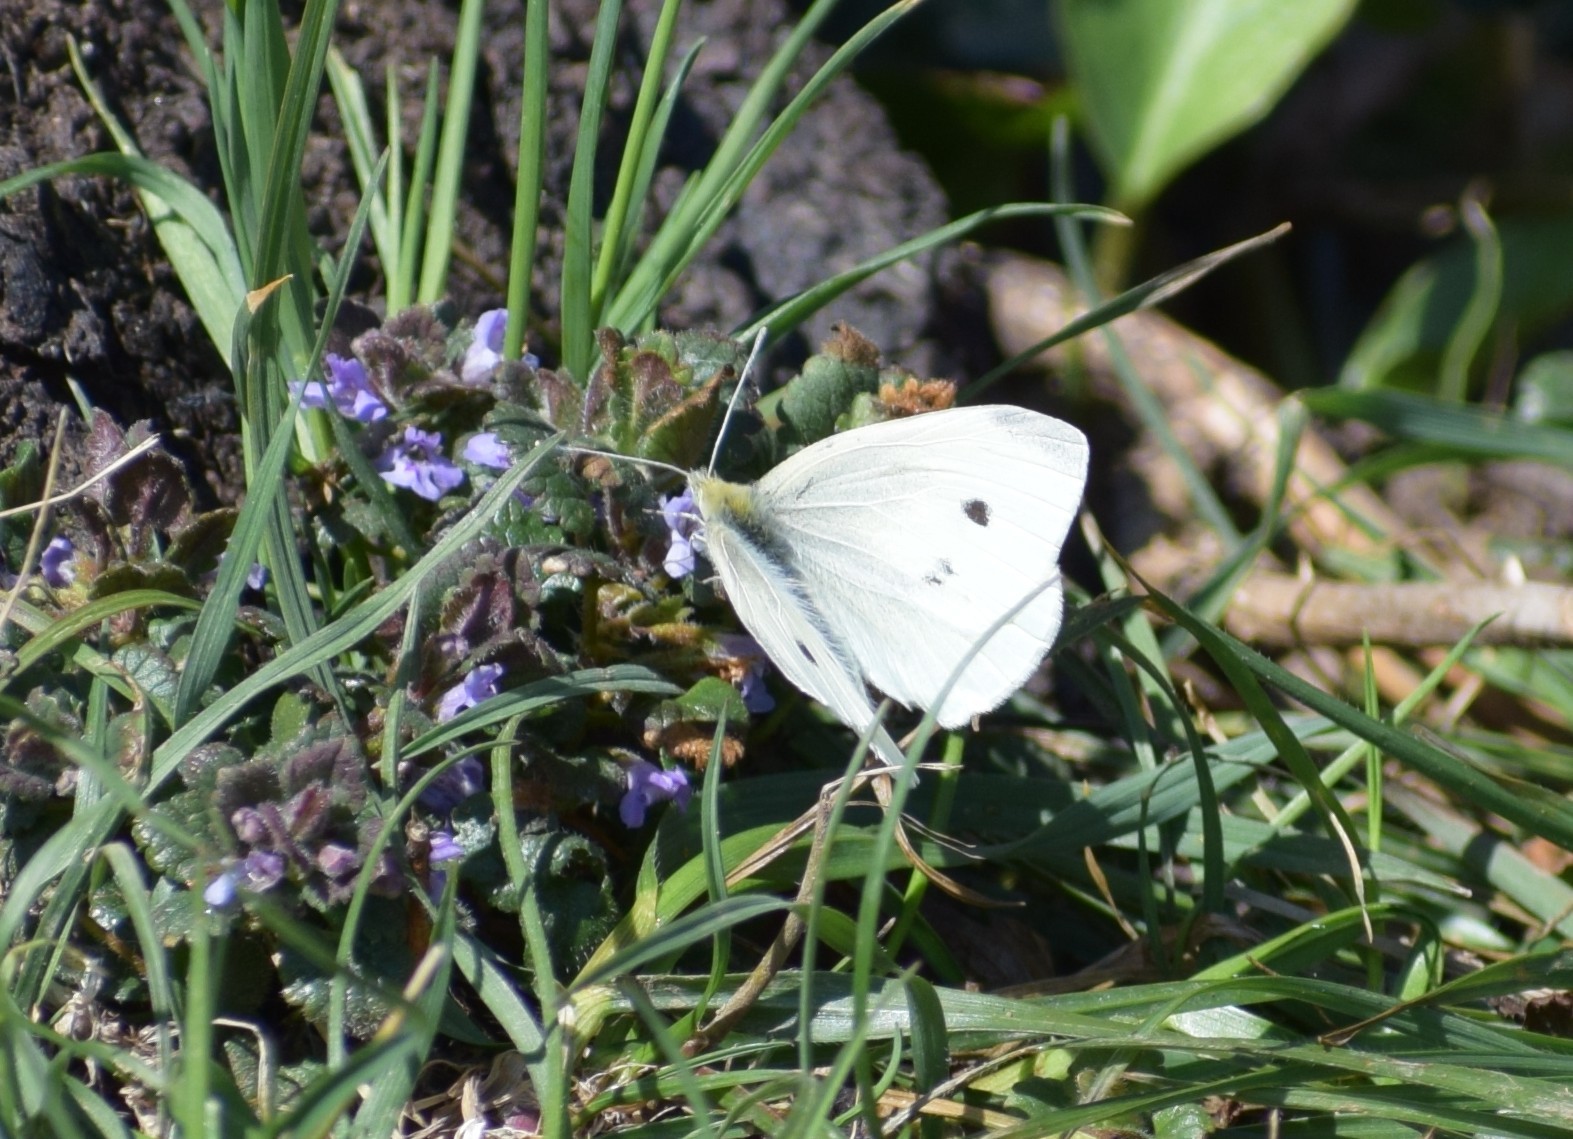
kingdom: Animalia
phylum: Arthropoda
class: Insecta
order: Lepidoptera
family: Pieridae
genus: Pieris
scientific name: Pieris rapae
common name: Small white
